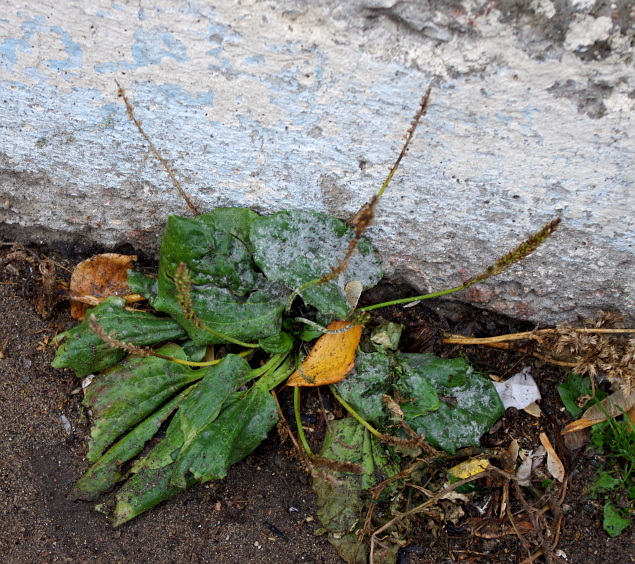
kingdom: Plantae
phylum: Tracheophyta
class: Magnoliopsida
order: Lamiales
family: Plantaginaceae
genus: Plantago
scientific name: Plantago major
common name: Common plantain
